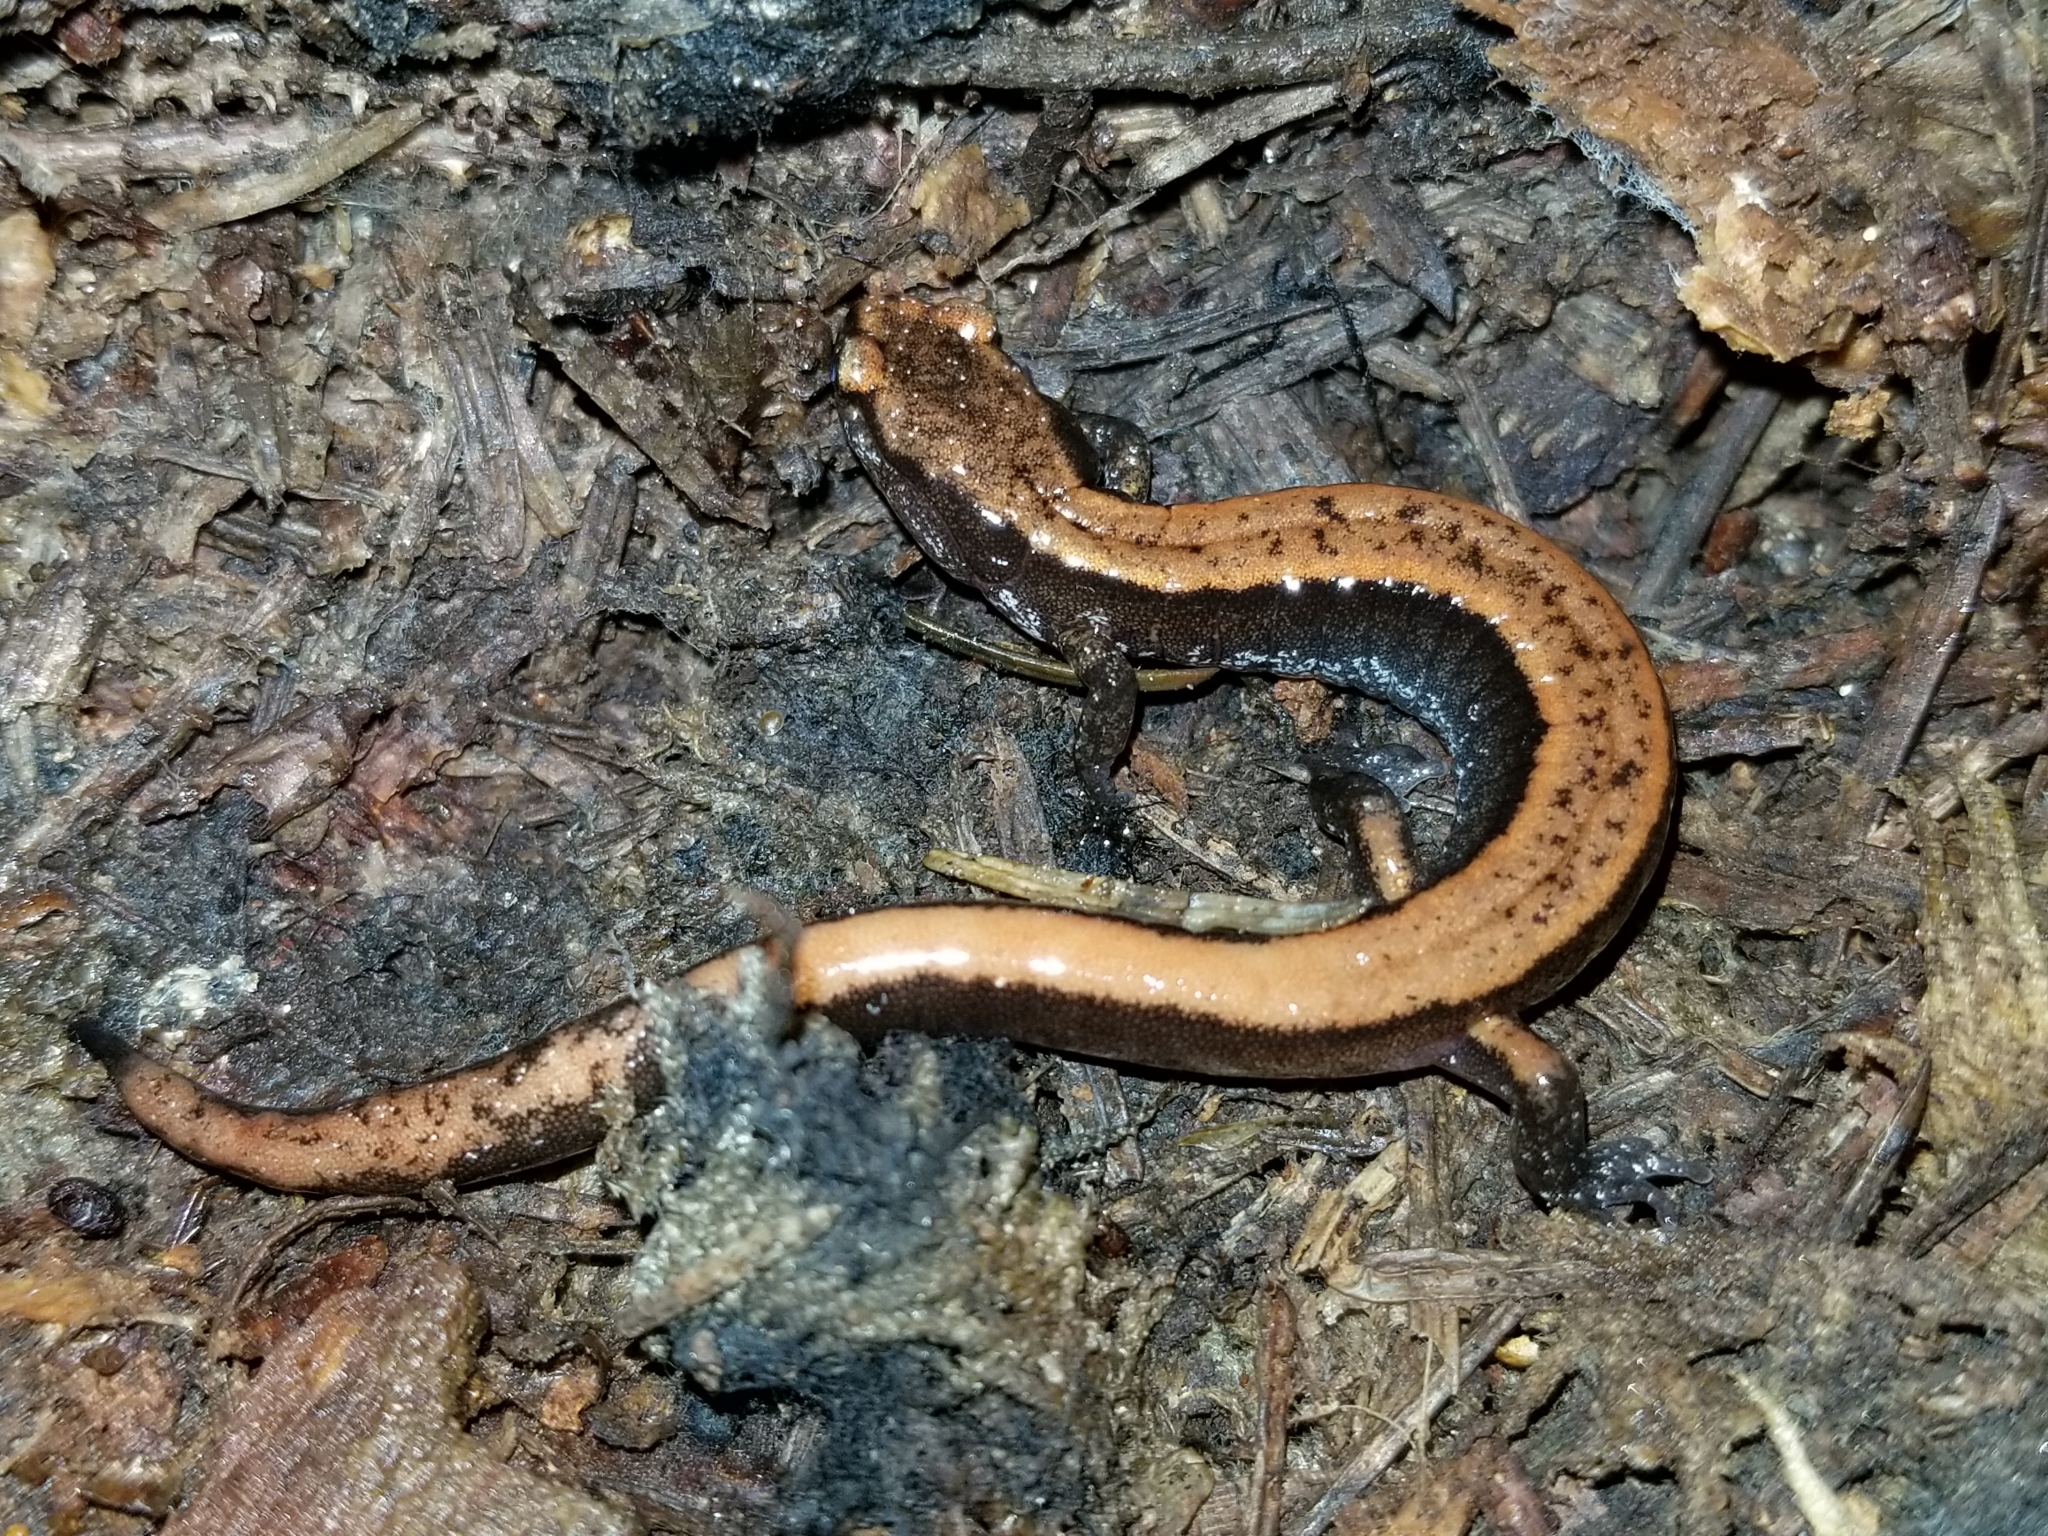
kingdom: Animalia
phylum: Chordata
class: Amphibia
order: Caudata
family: Plethodontidae
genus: Plethodon
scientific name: Plethodon vehiculum
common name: Western red-backed salamander
